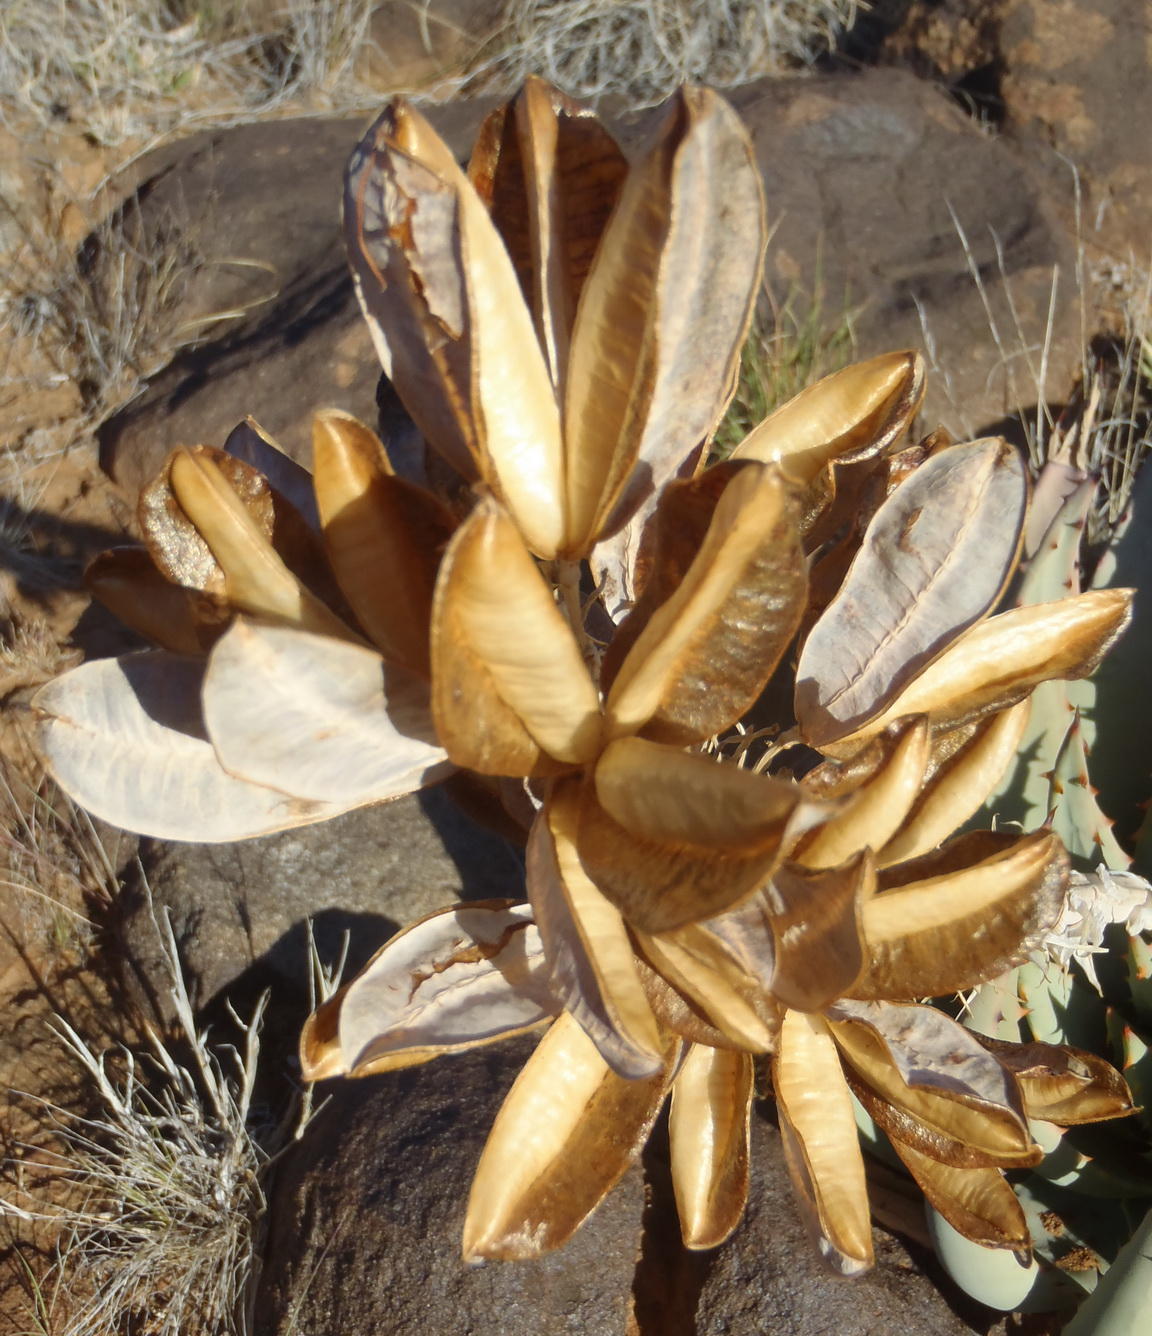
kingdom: Plantae
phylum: Tracheophyta
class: Liliopsida
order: Asparagales
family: Asphodelaceae
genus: Aloe
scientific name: Aloe claviflora
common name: Cannon aloe
